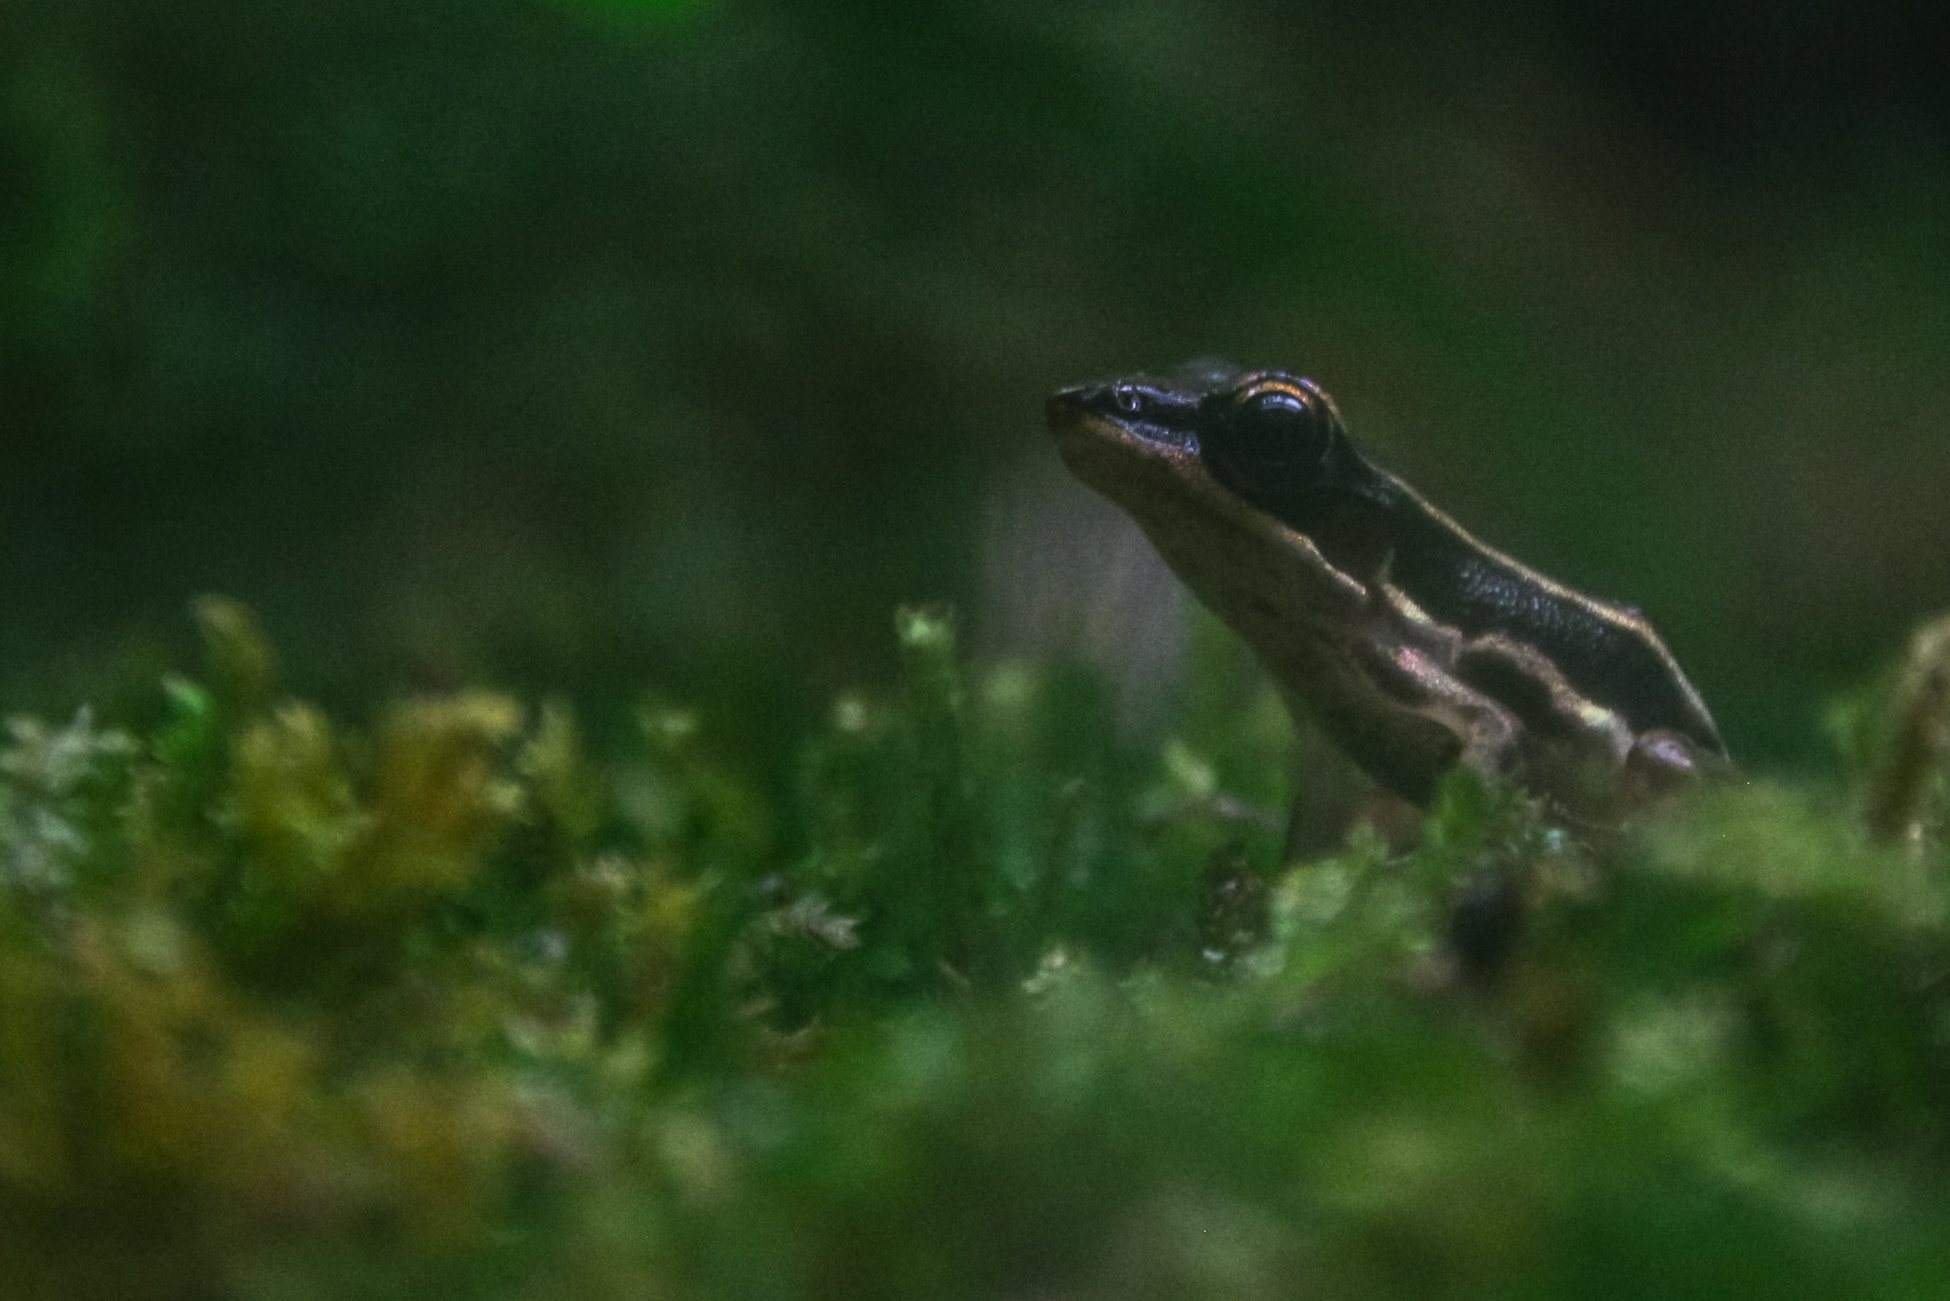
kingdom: Animalia
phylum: Chordata
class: Amphibia
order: Anura
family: Ranidae
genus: Hylarana
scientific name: Hylarana taipehensis
